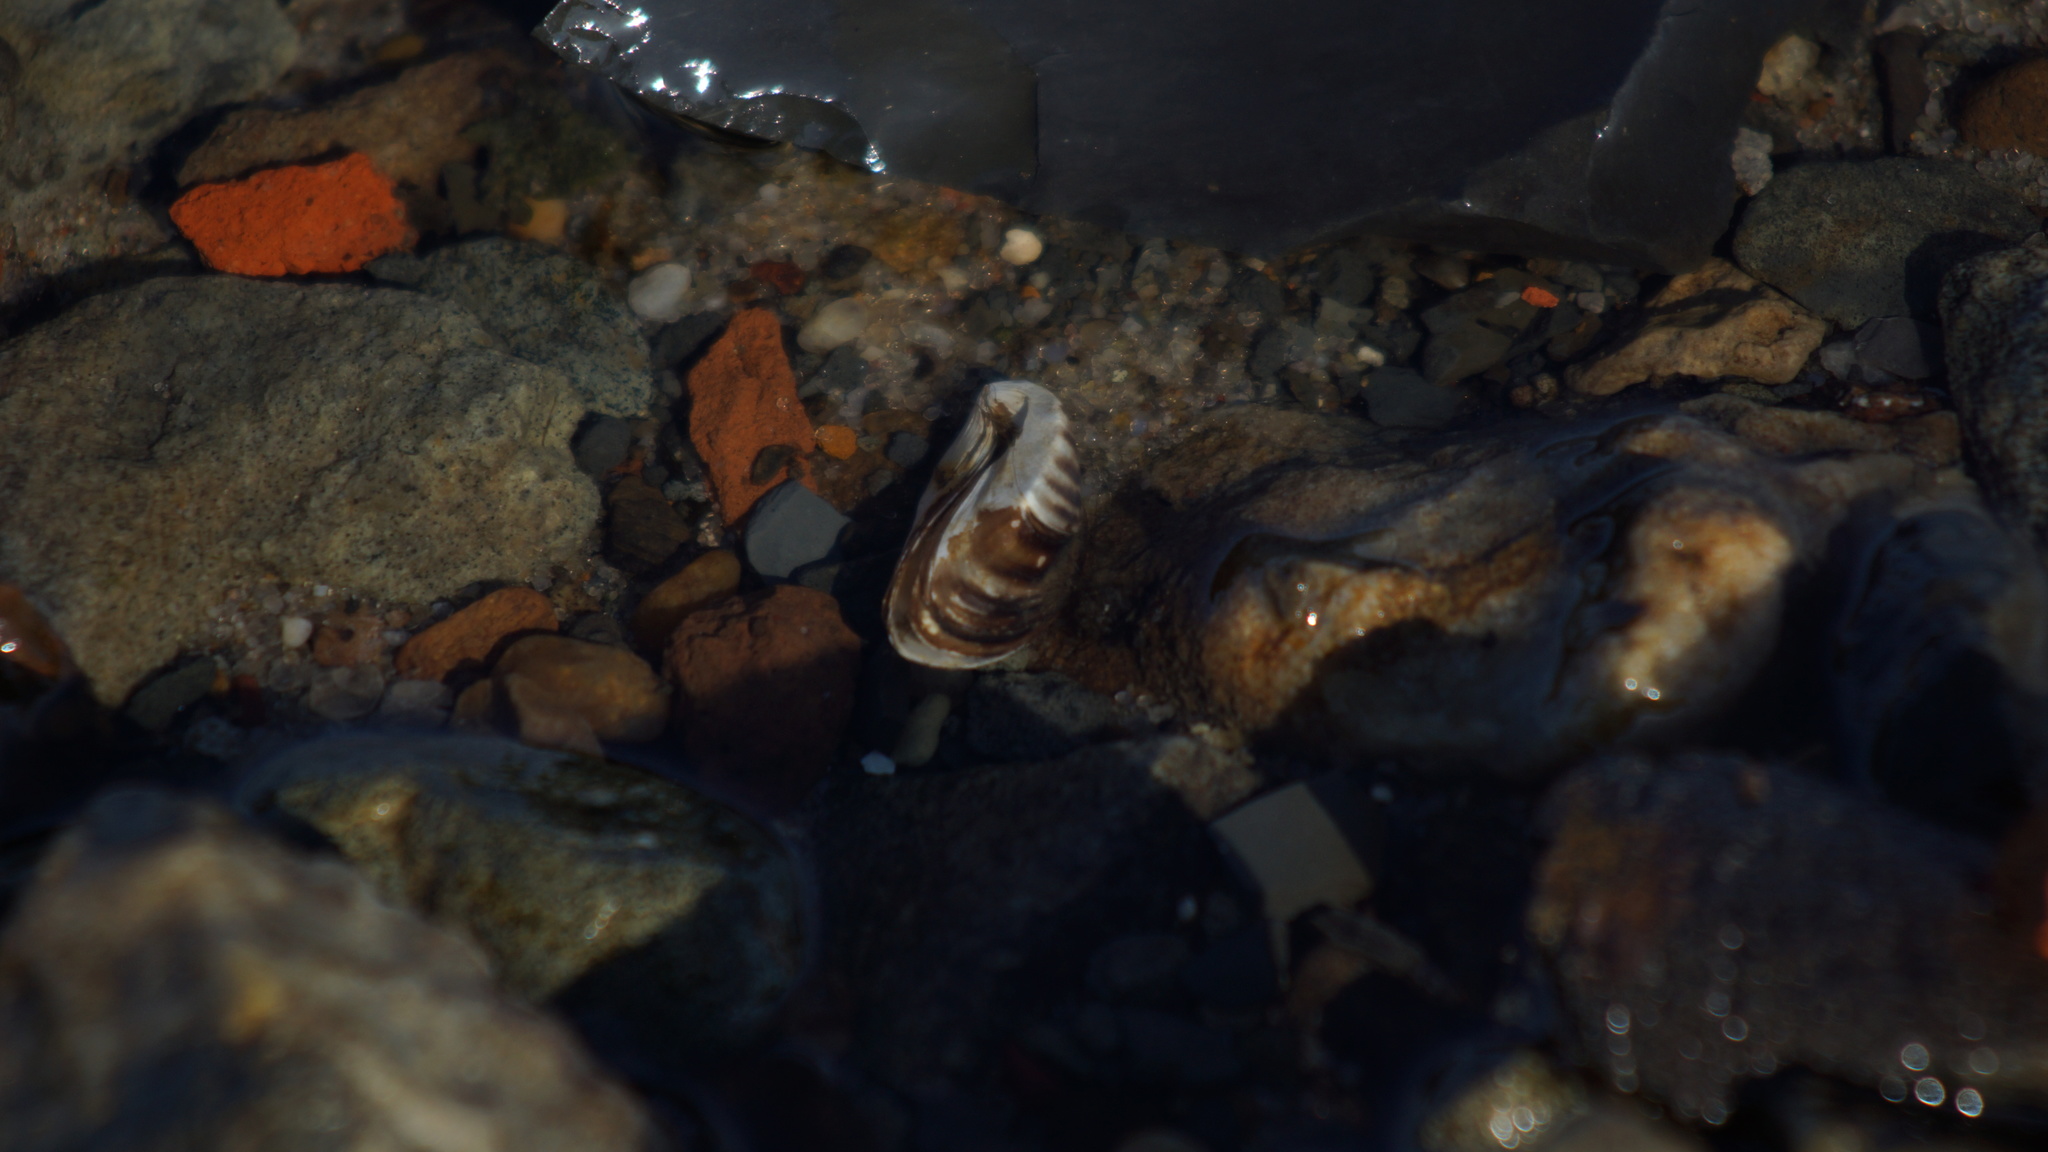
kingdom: Animalia
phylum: Mollusca
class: Bivalvia
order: Myida
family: Dreissenidae
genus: Dreissena
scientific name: Dreissena polymorpha
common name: Zebra mussel
